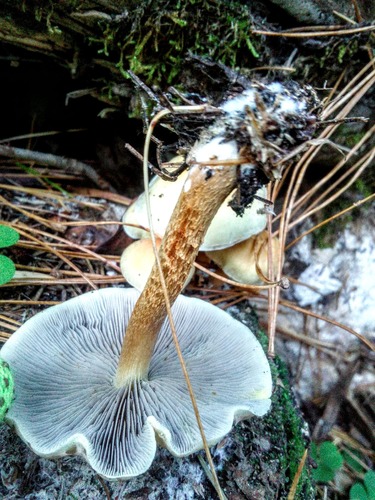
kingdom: Fungi
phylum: Basidiomycota
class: Agaricomycetes
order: Agaricales
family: Strophariaceae
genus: Hypholoma
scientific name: Hypholoma capnoides
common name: Conifer tuft
